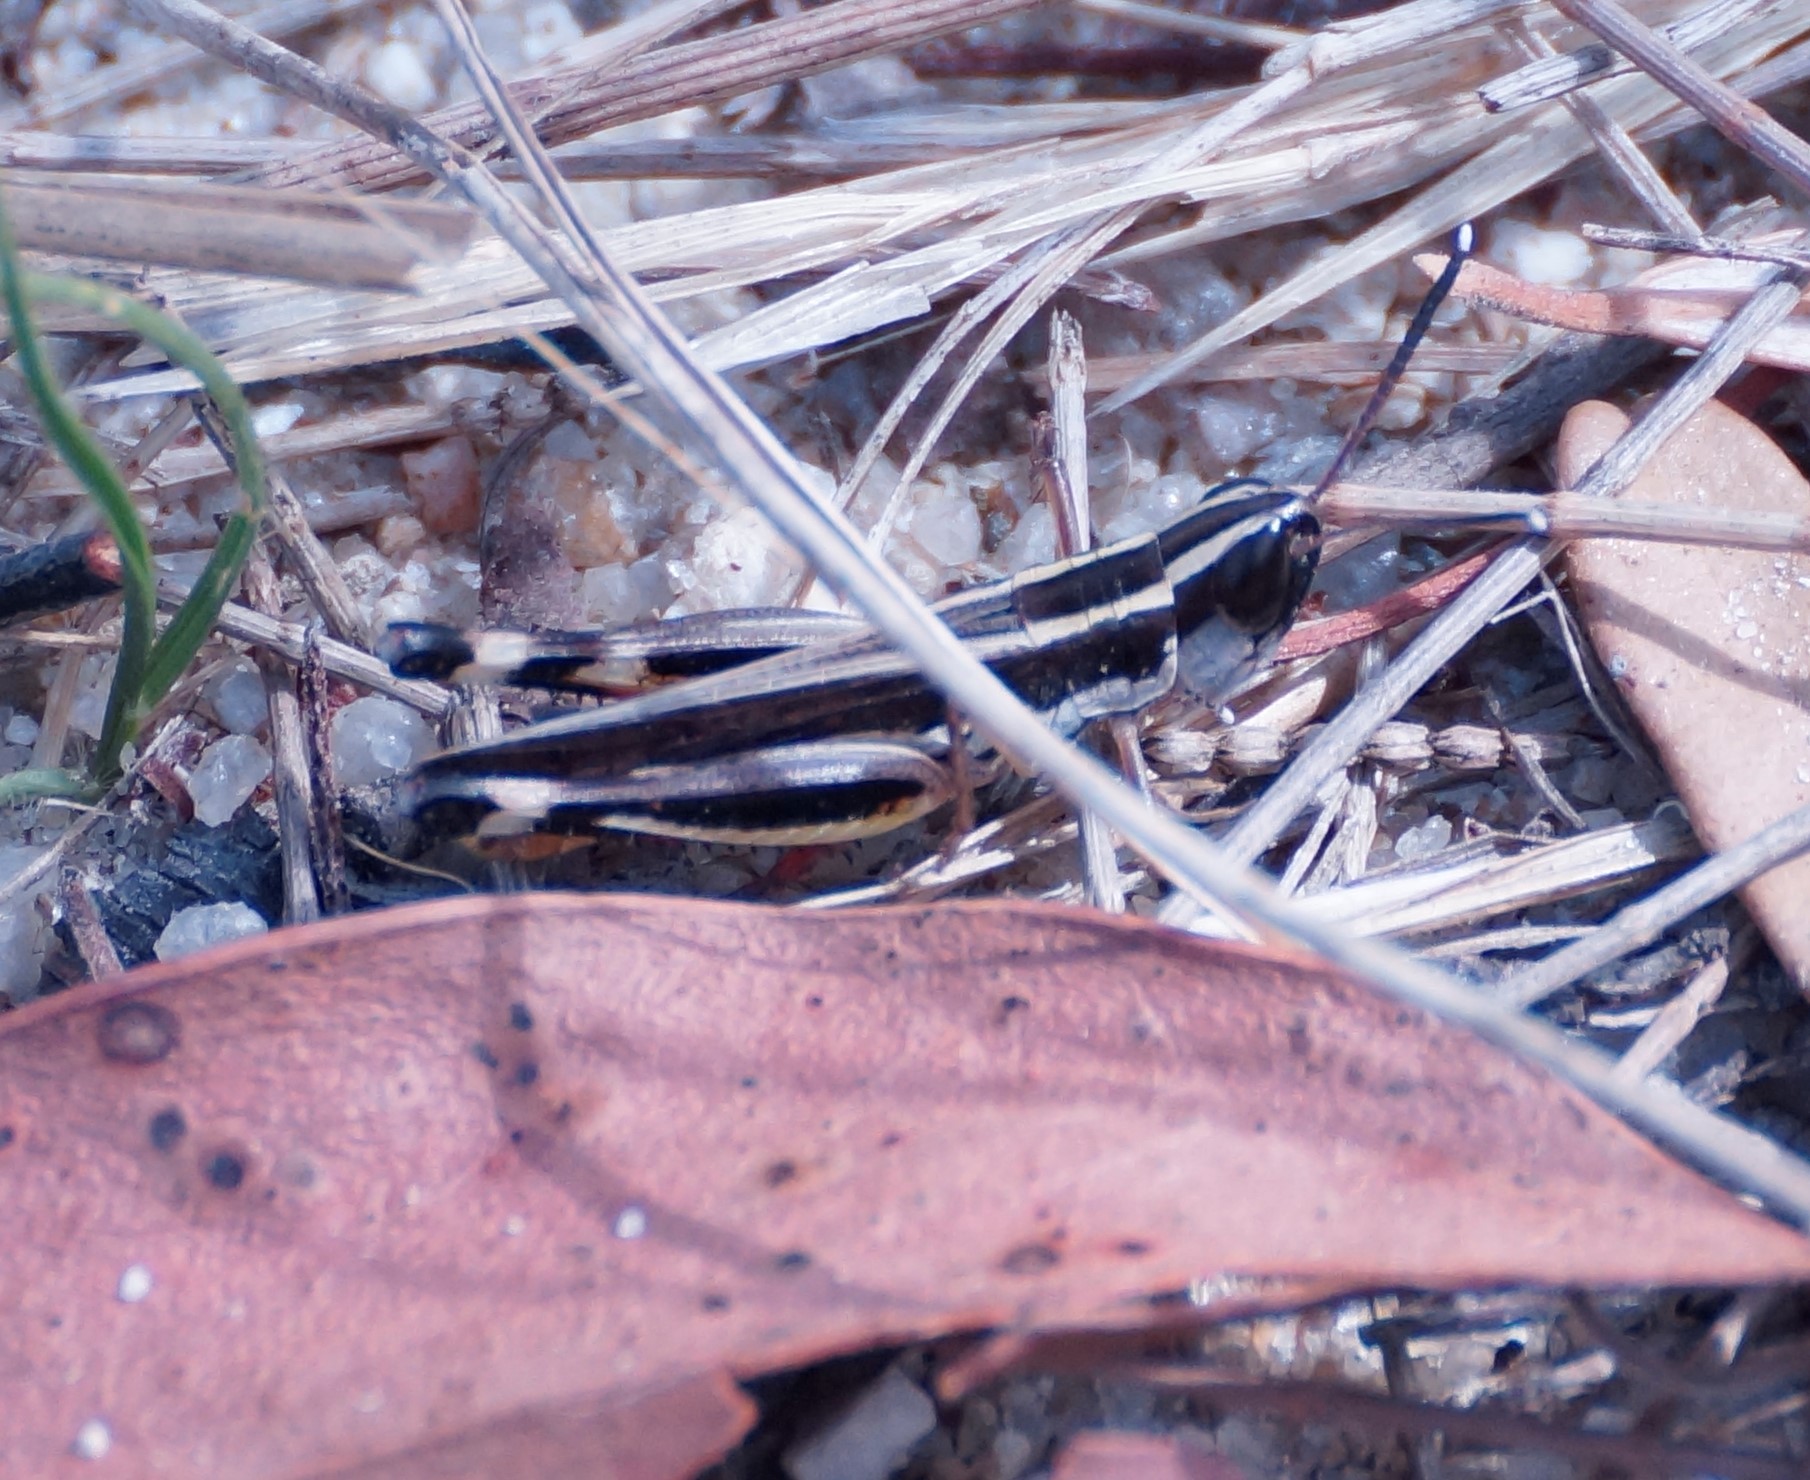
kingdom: Animalia
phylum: Arthropoda
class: Insecta
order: Orthoptera
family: Acrididae
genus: Macrotona
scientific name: Macrotona australis
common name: Common macrotona
